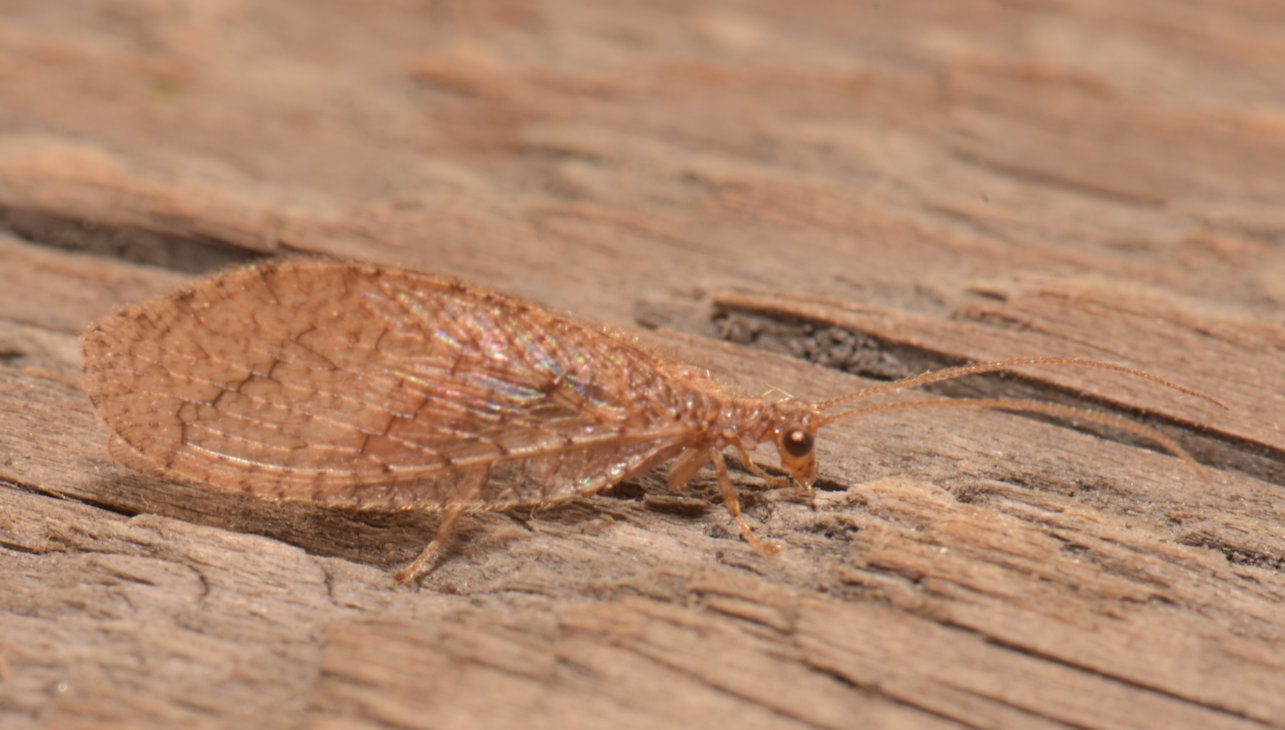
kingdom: Animalia
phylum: Arthropoda
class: Insecta
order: Neuroptera
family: Hemerobiidae
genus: Micromus
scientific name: Micromus posticus
